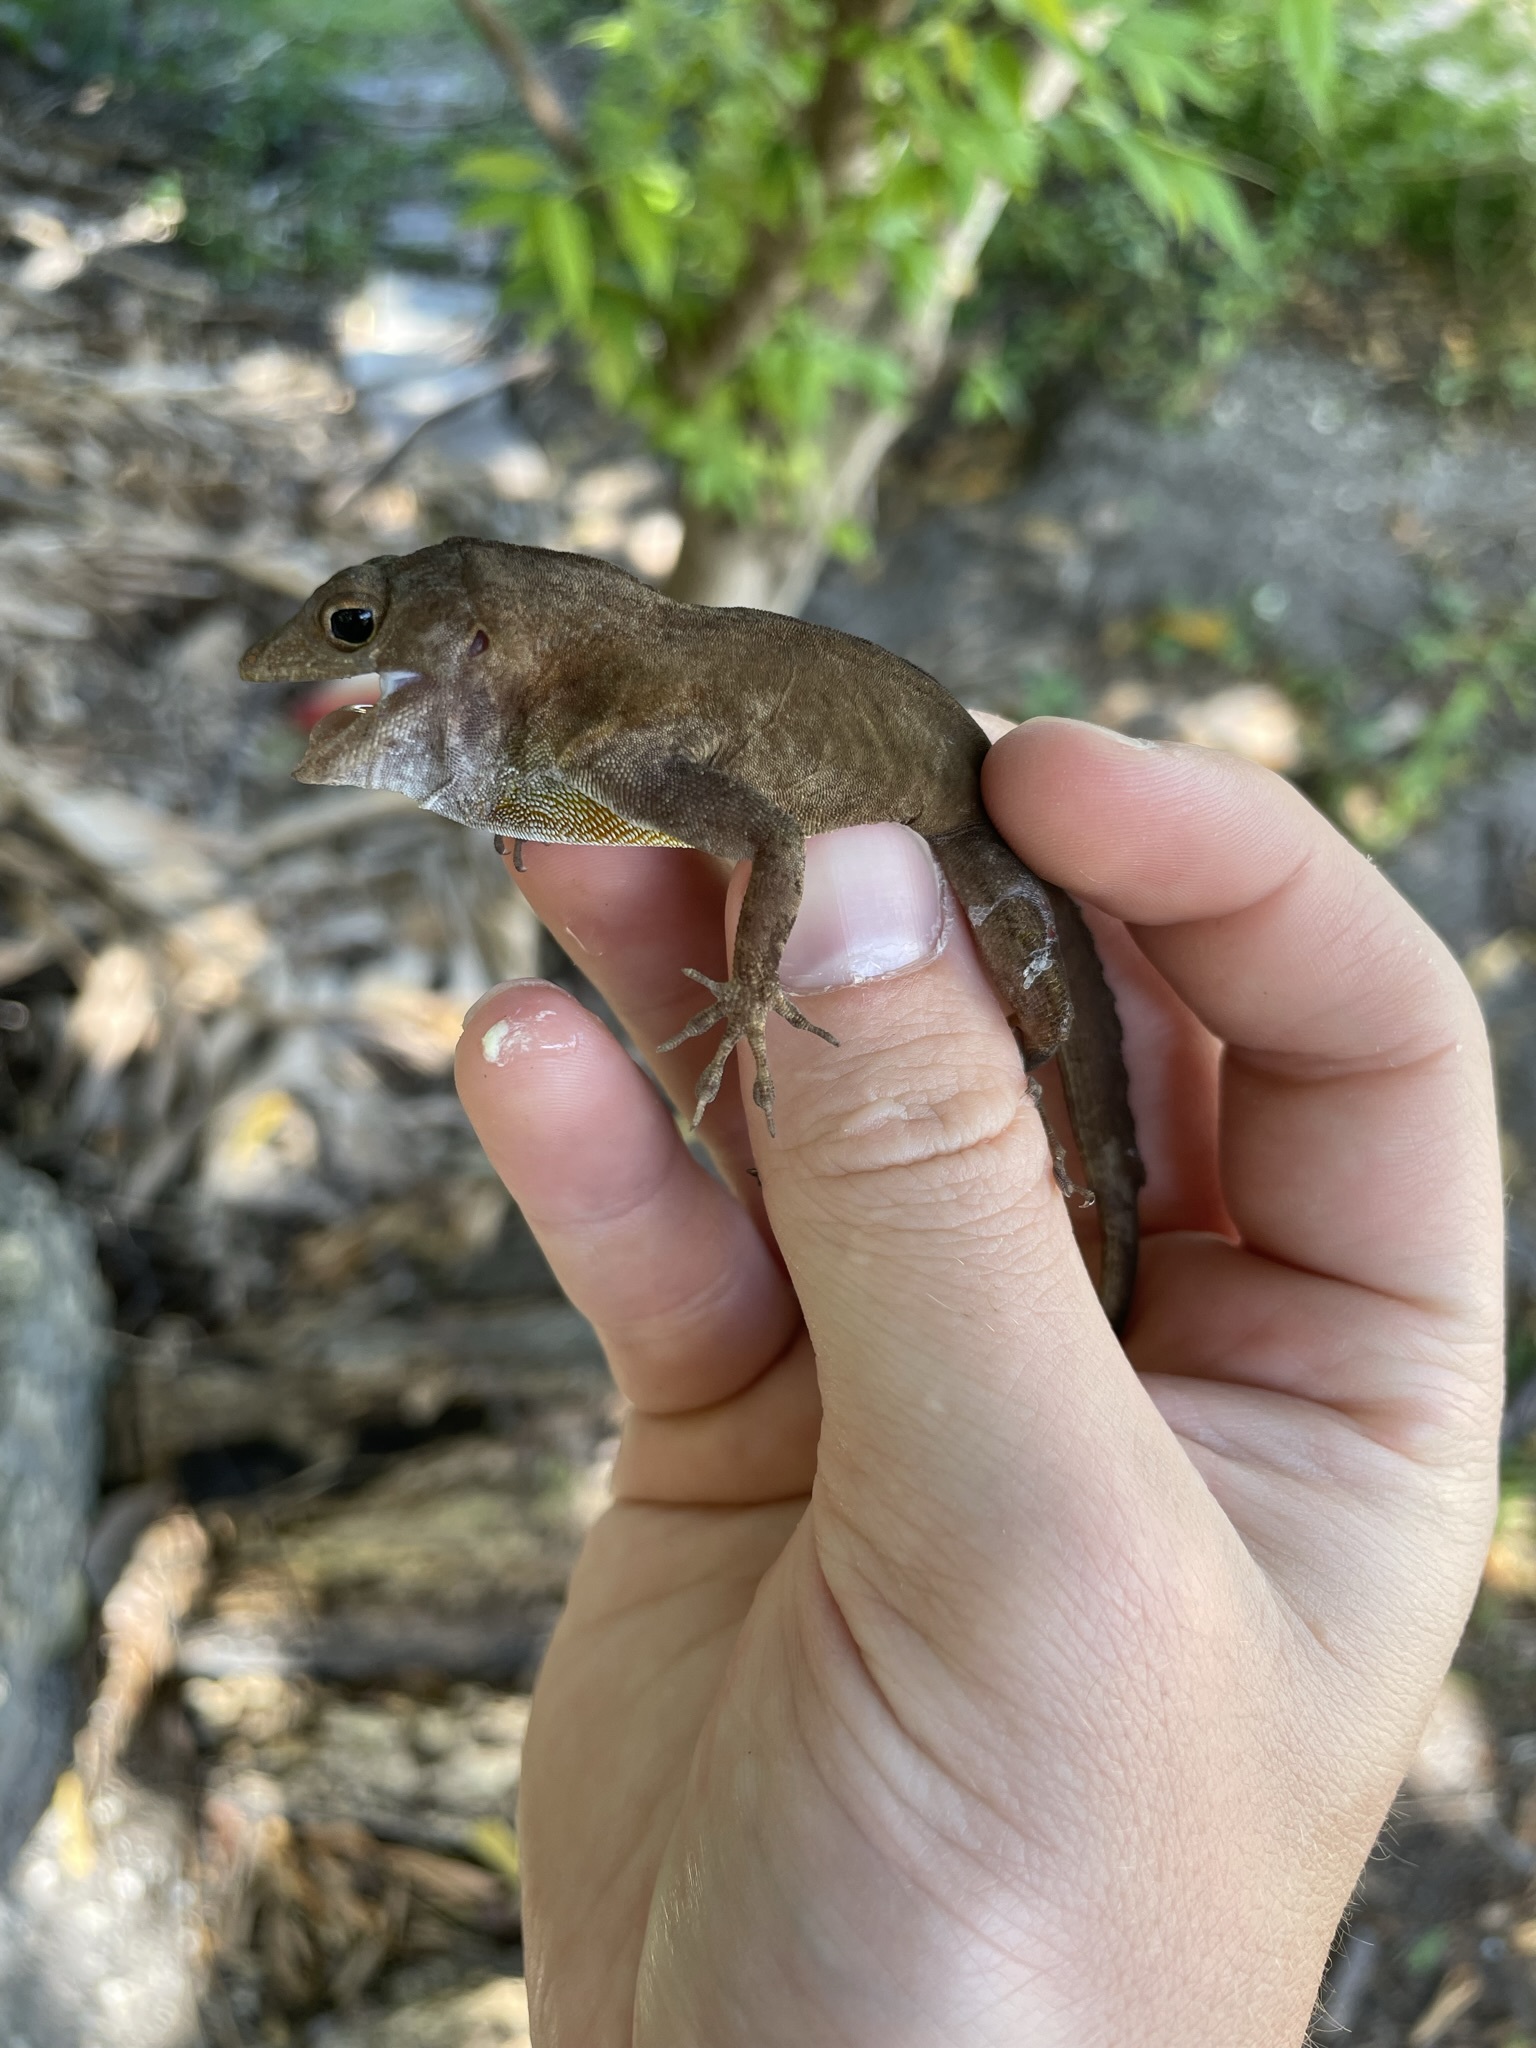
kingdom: Animalia
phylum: Chordata
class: Squamata
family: Dactyloidae
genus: Anolis
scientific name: Anolis cristatellus
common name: Crested anole
